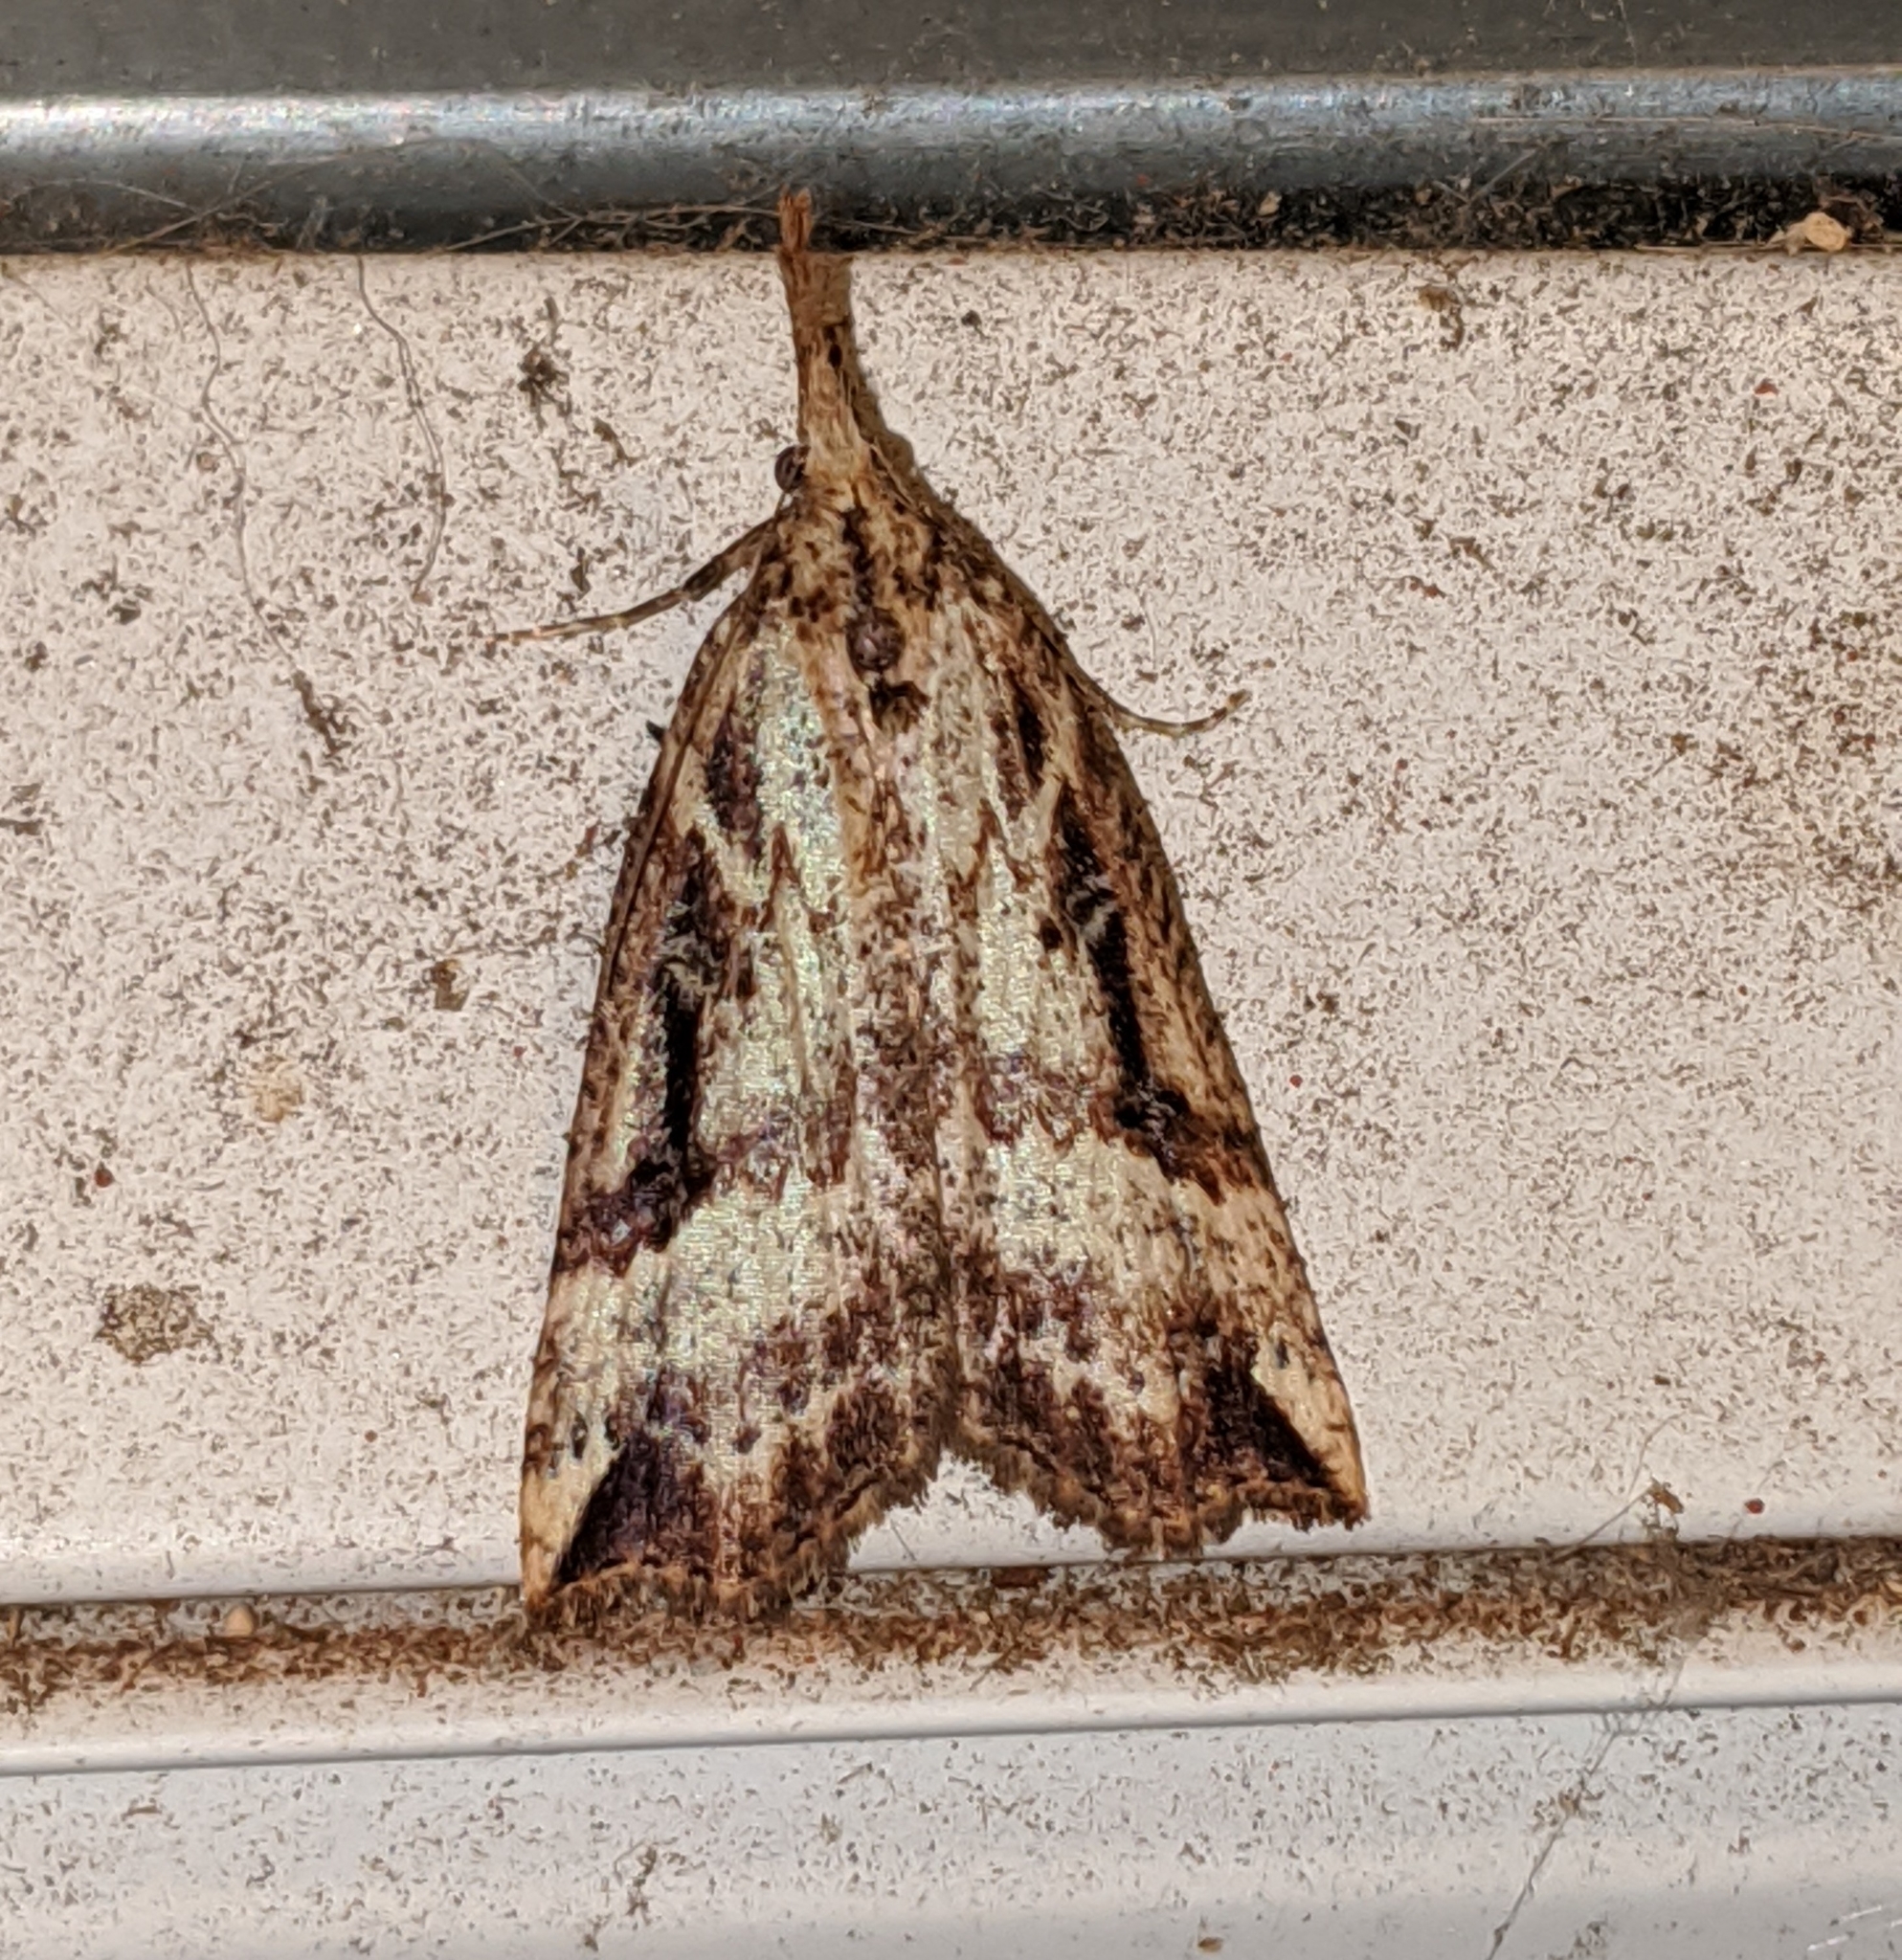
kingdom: Animalia
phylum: Arthropoda
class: Insecta
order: Lepidoptera
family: Erebidae
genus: Hypena
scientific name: Hypena californica
